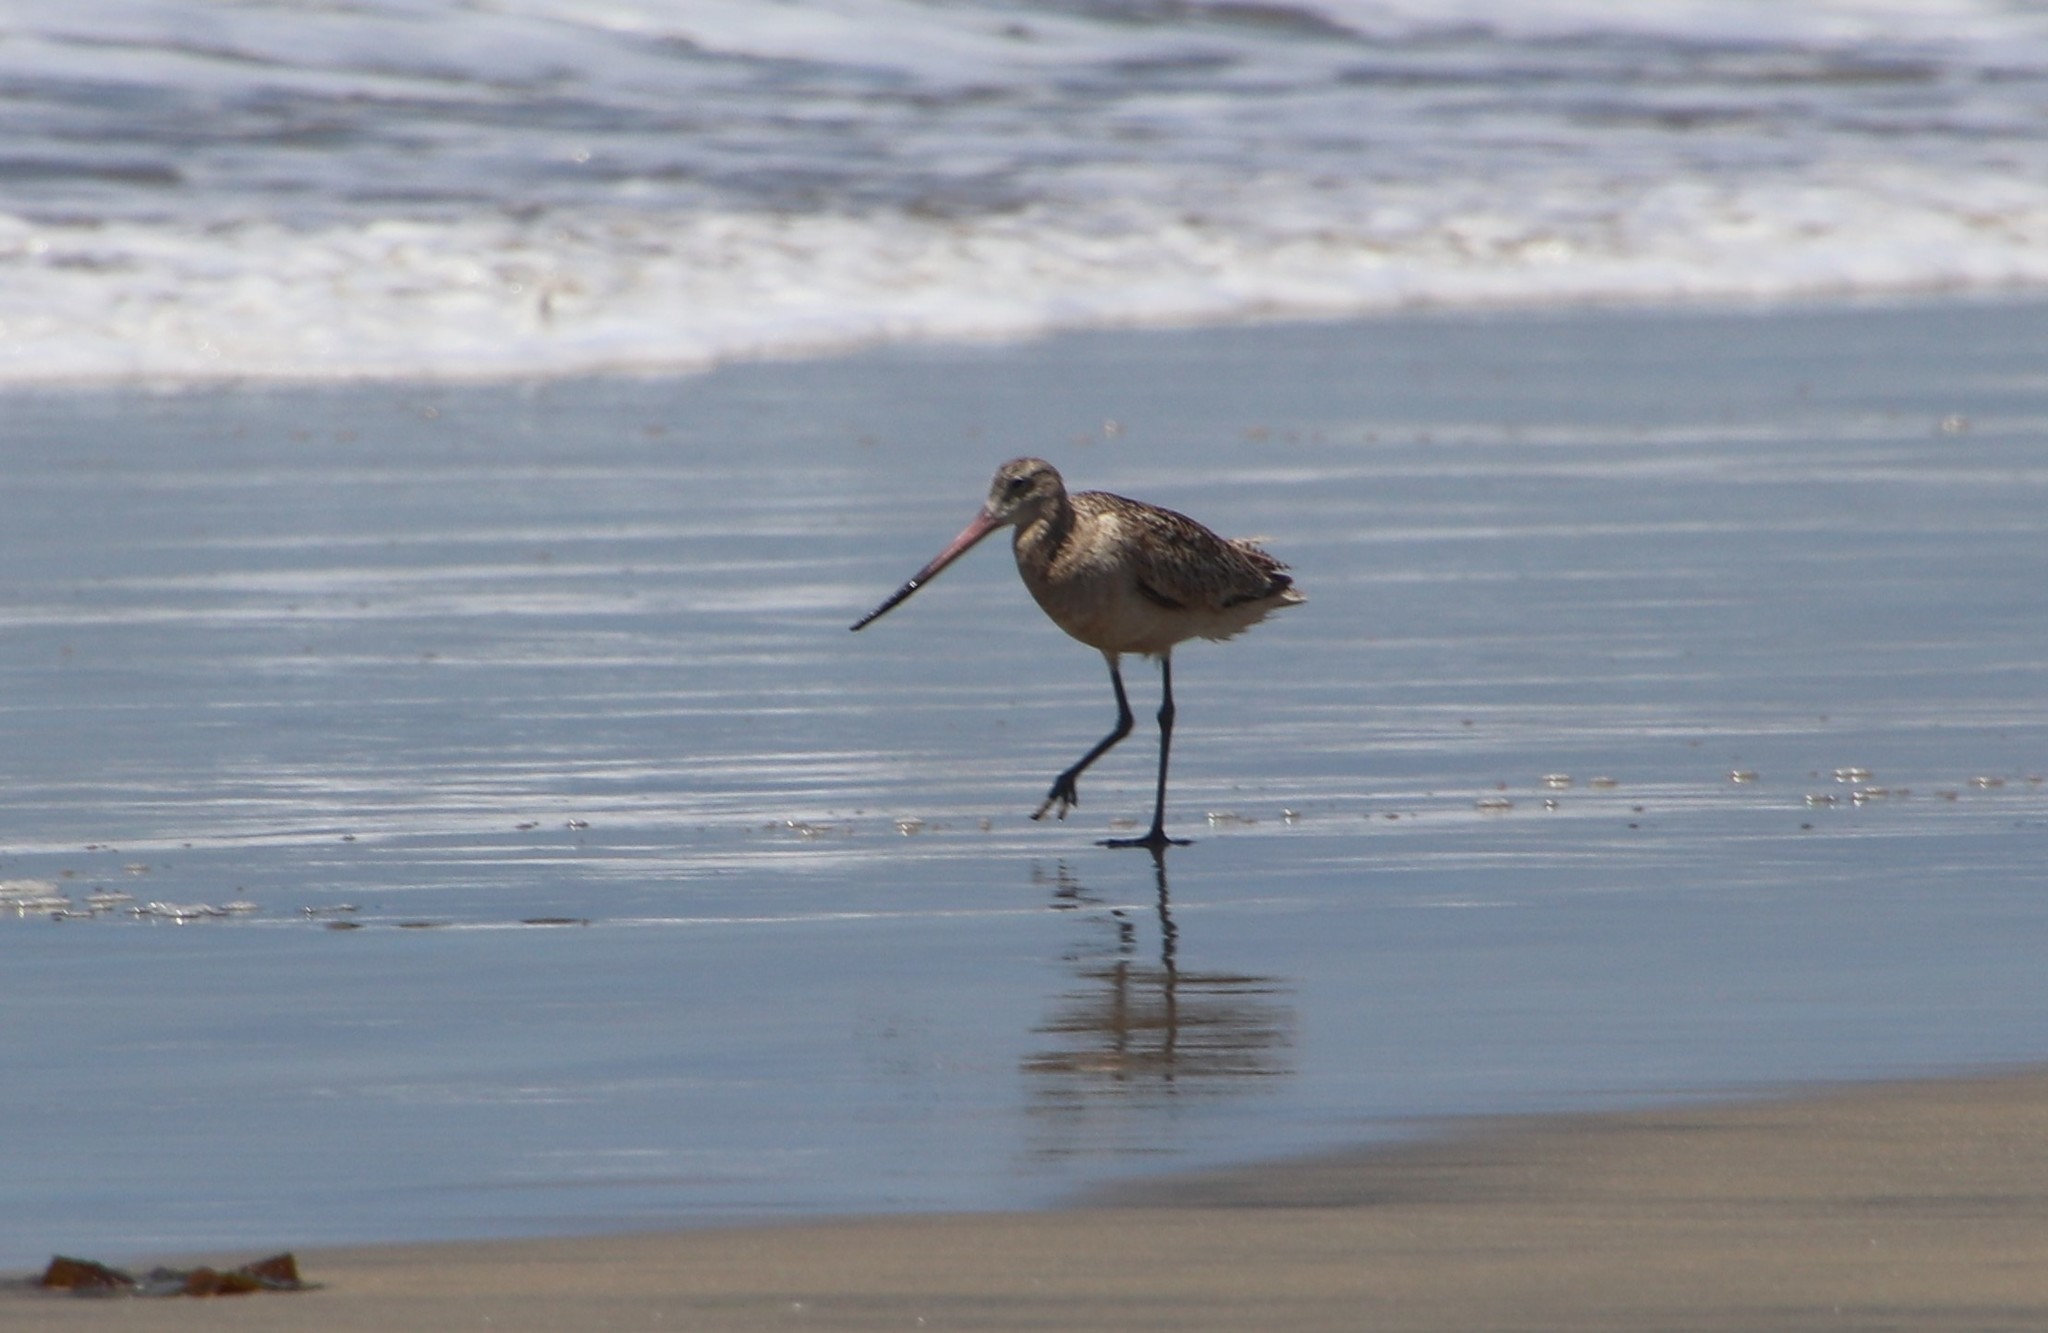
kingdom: Animalia
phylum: Chordata
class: Aves
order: Charadriiformes
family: Scolopacidae
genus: Limosa
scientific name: Limosa fedoa
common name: Marbled godwit
